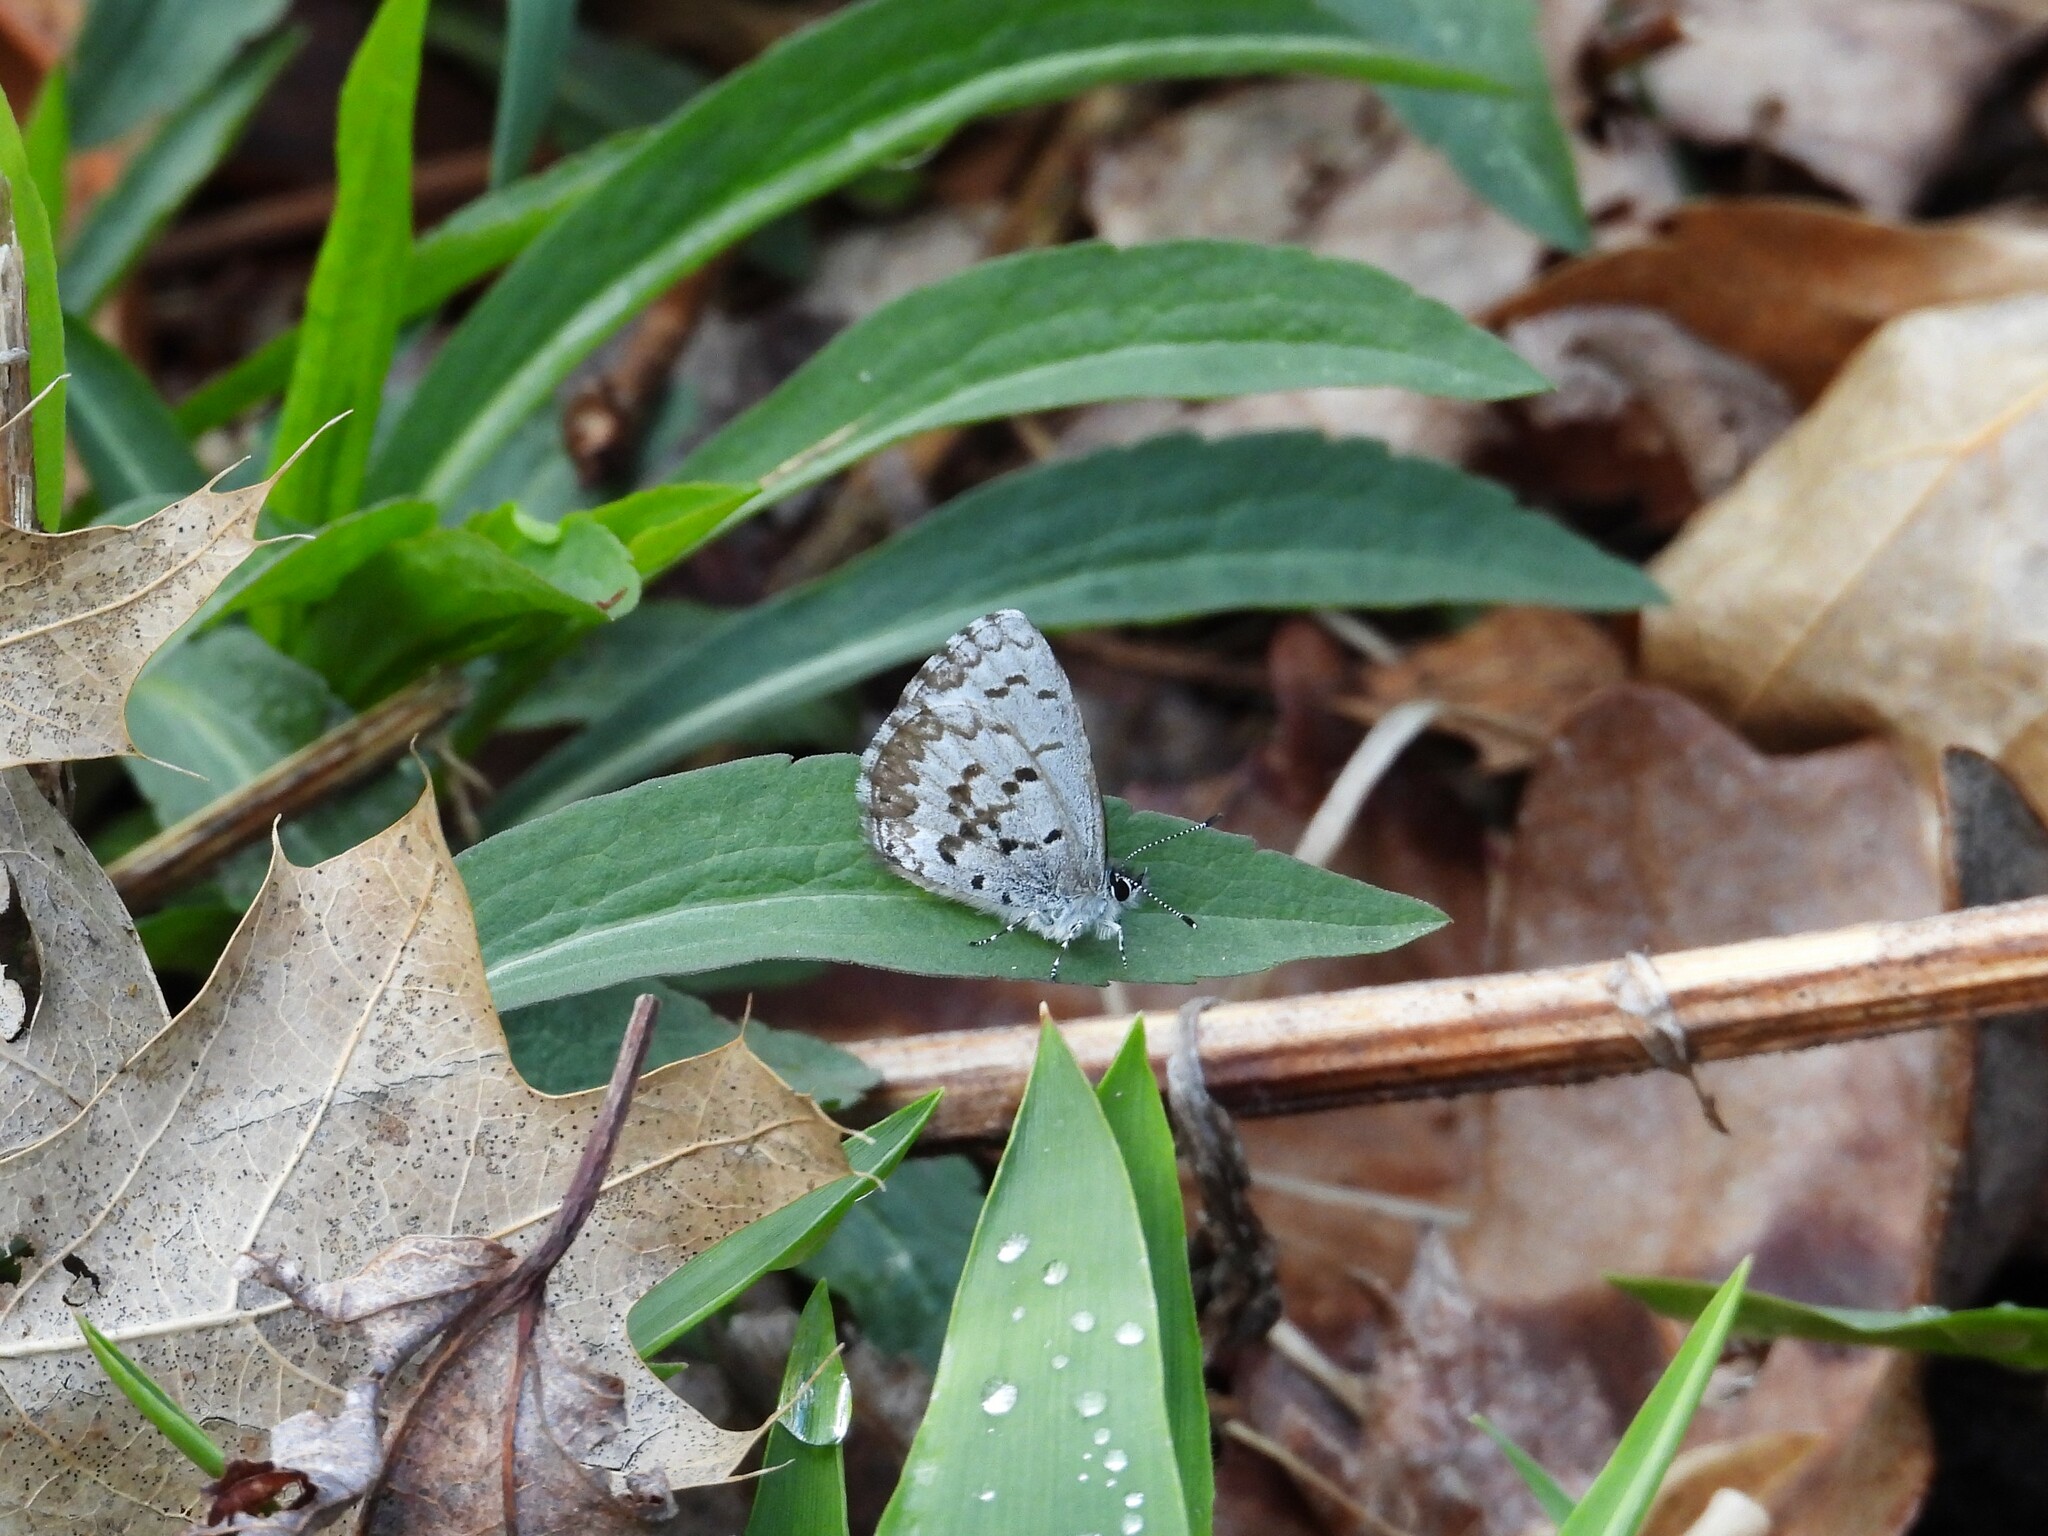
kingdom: Animalia
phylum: Arthropoda
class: Insecta
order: Lepidoptera
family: Lycaenidae
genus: Celastrina
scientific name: Celastrina ladon
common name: Spring azure
